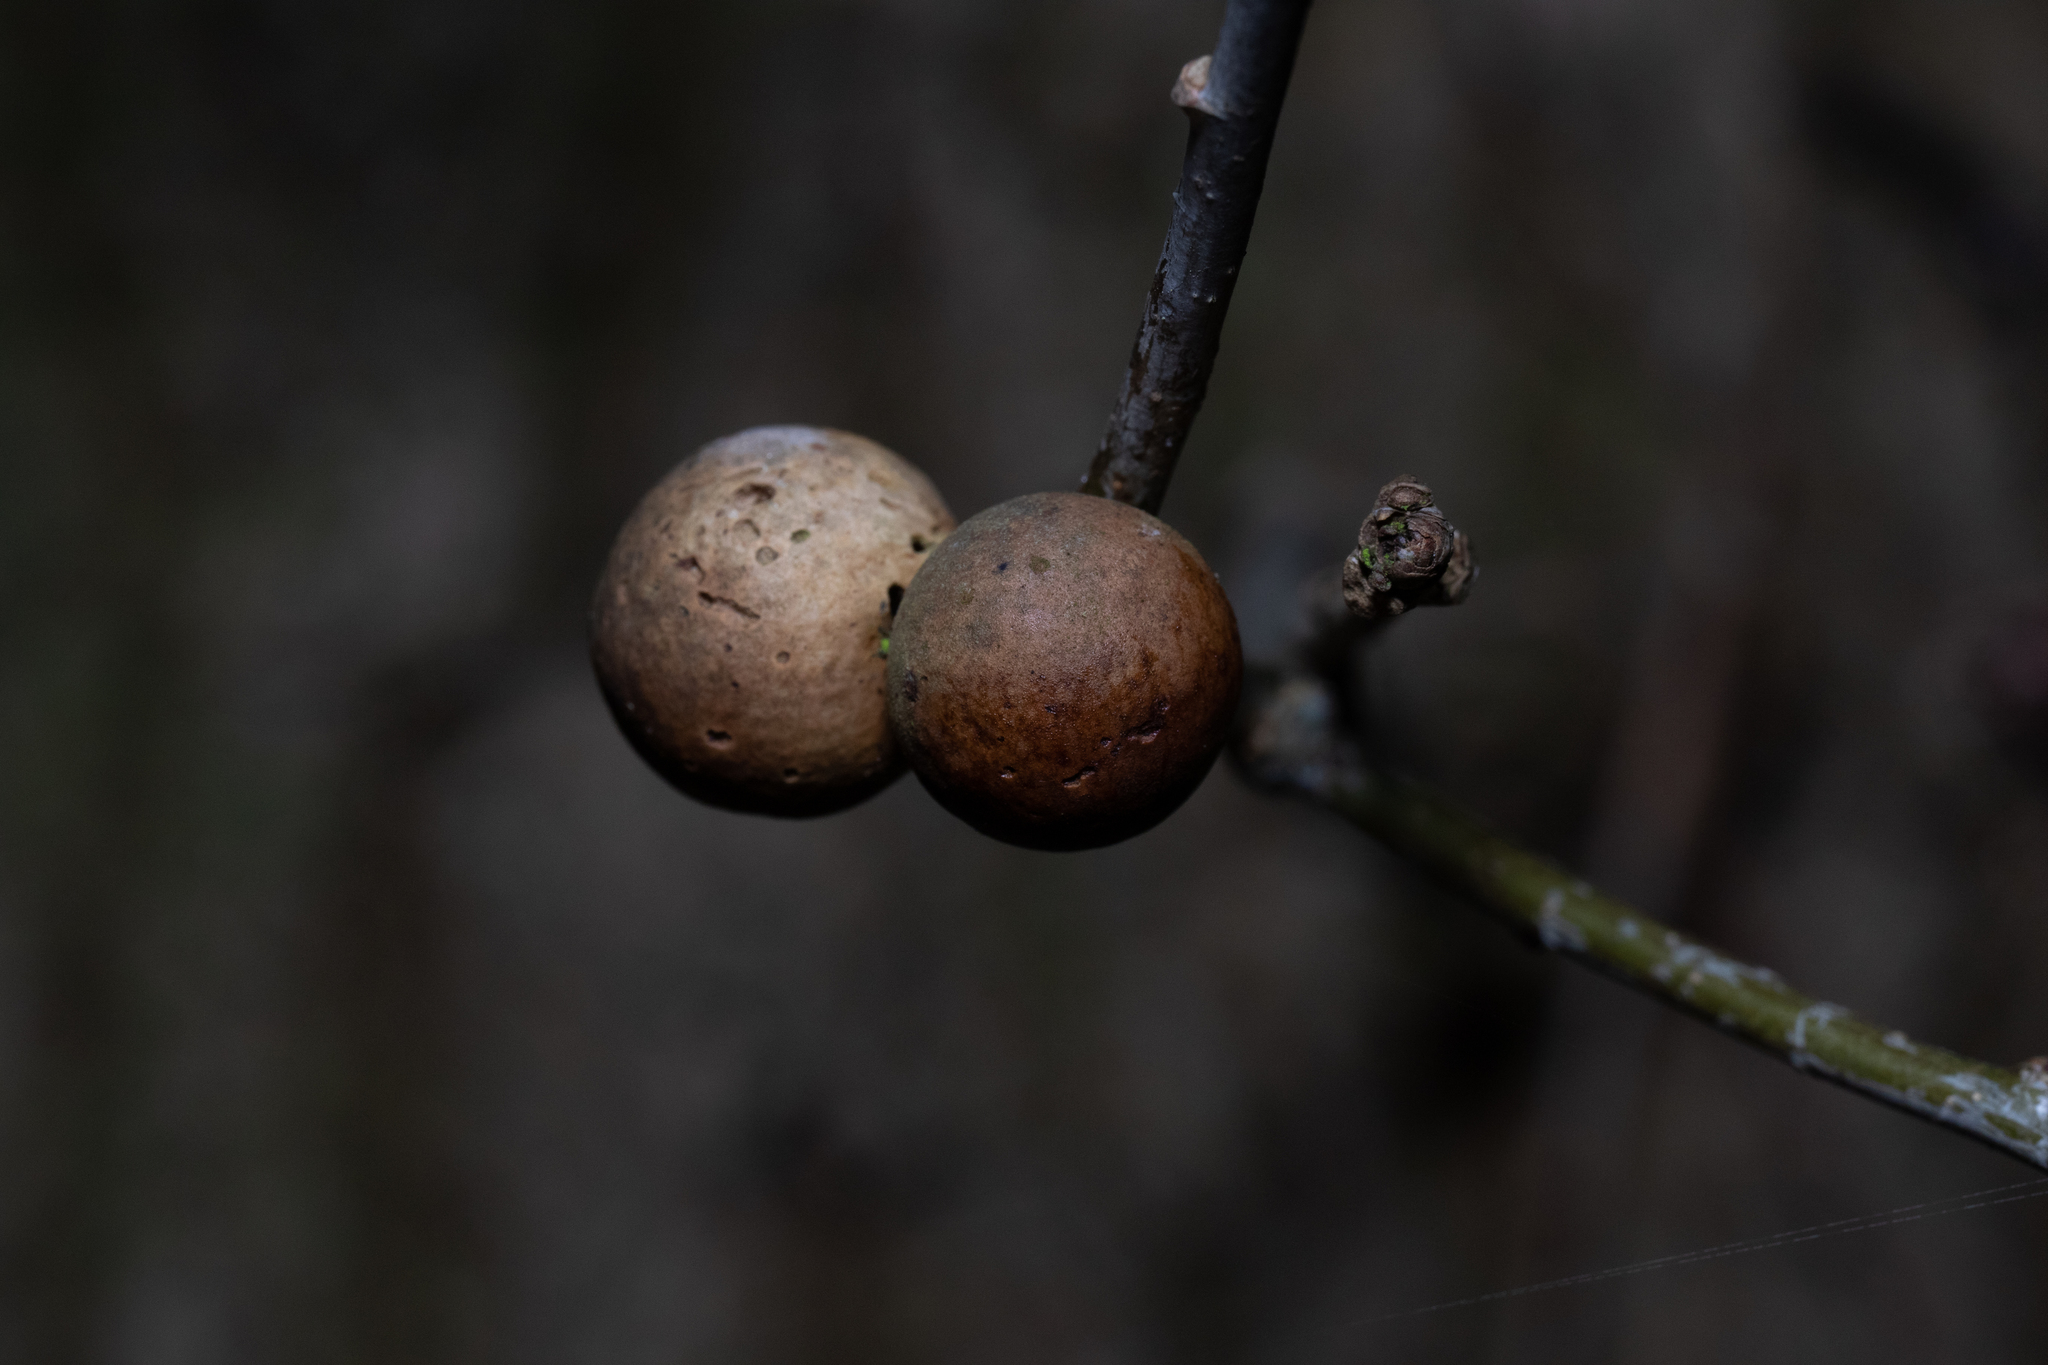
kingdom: Animalia
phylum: Arthropoda
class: Insecta
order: Hymenoptera
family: Cynipidae
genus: Andricus
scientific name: Andricus kollari
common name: Marble gall
